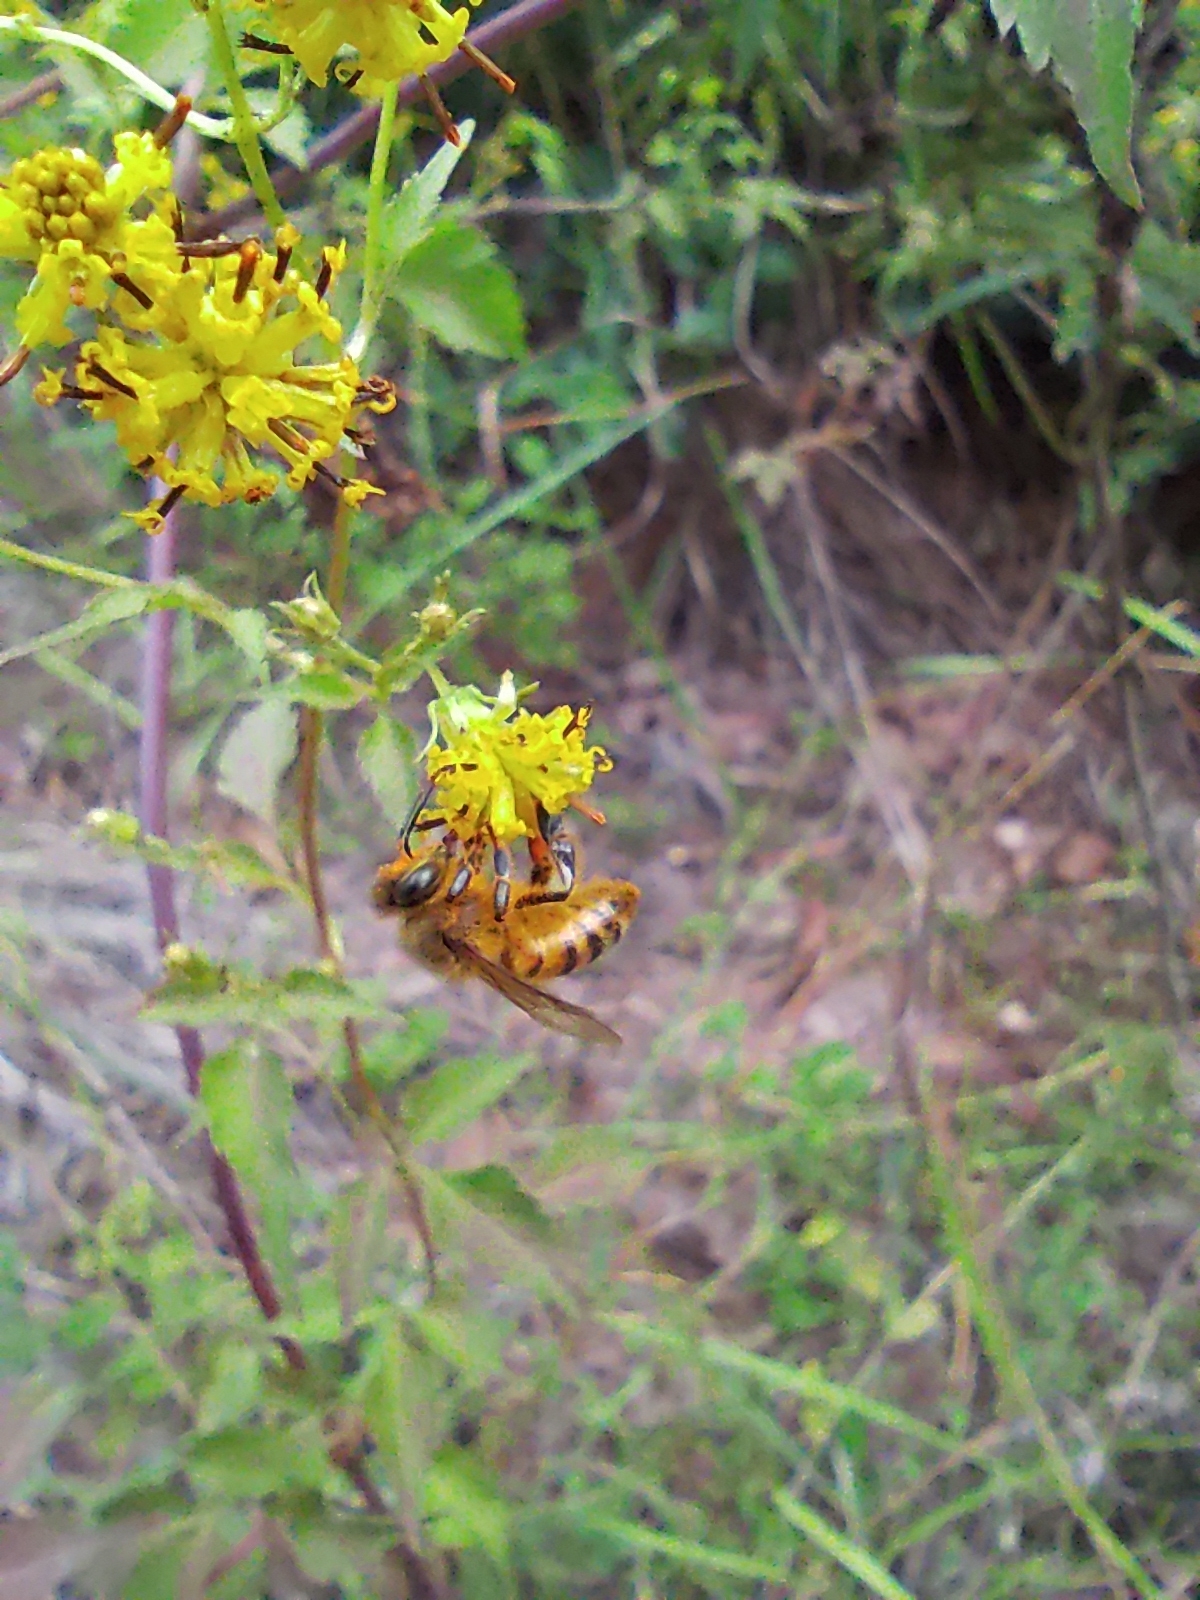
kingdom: Animalia
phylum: Arthropoda
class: Insecta
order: Hymenoptera
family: Apidae
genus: Apis
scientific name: Apis mellifera
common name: Honey bee
